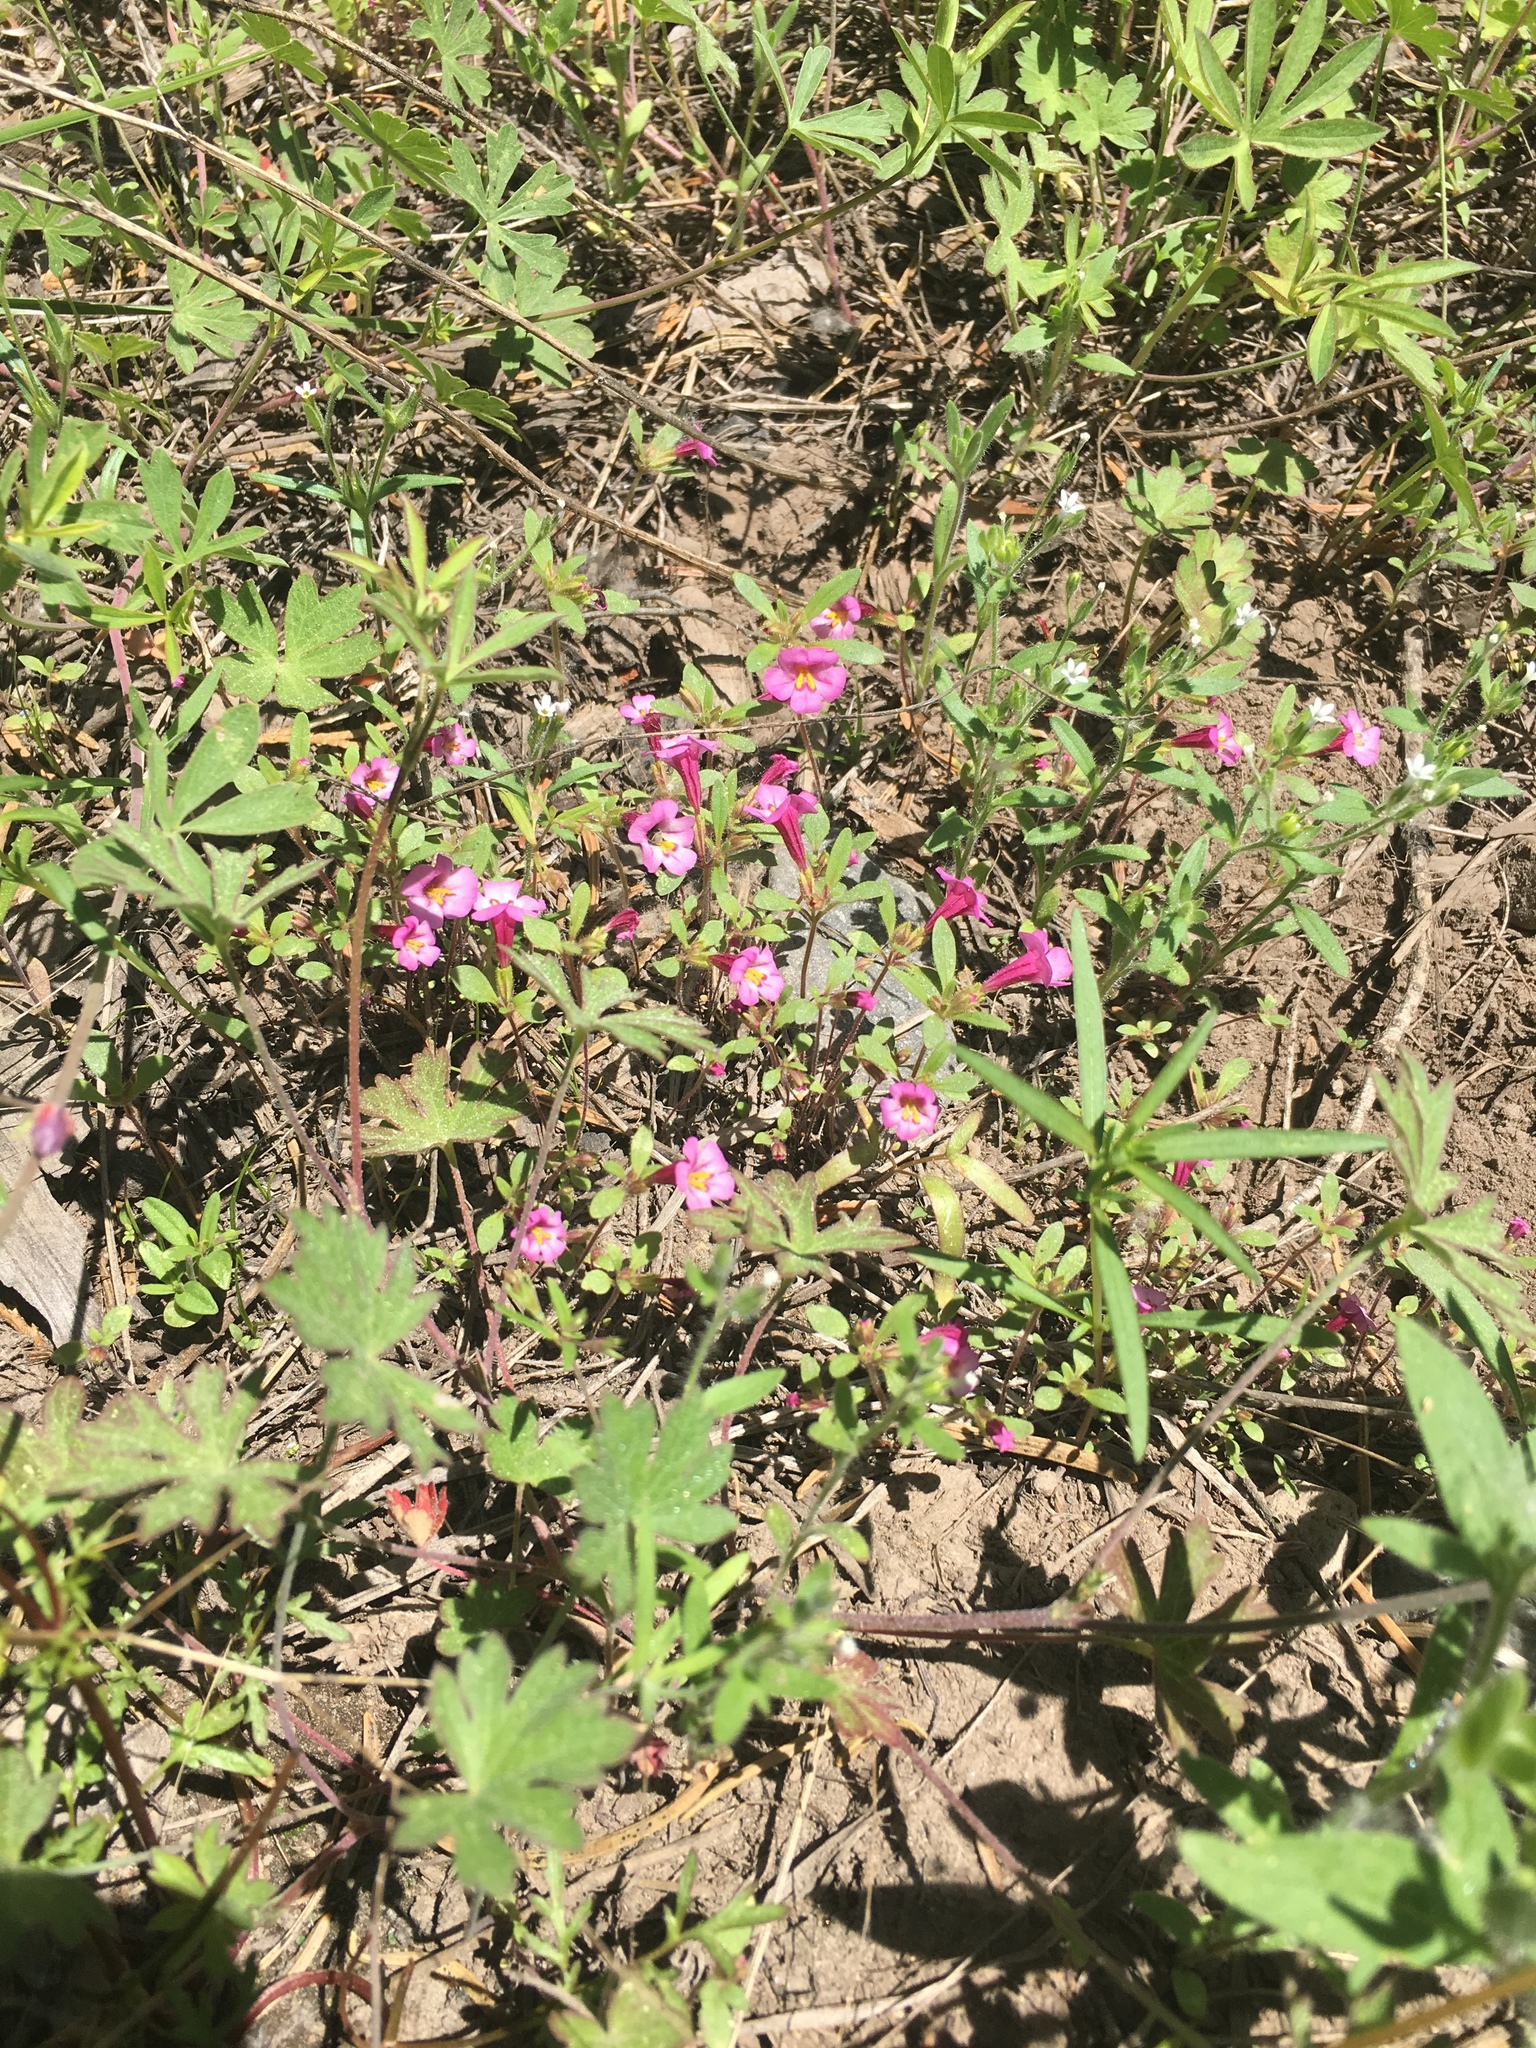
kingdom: Plantae
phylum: Tracheophyta
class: Magnoliopsida
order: Lamiales
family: Phrymaceae
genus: Diplacus
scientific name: Diplacus torreyi
